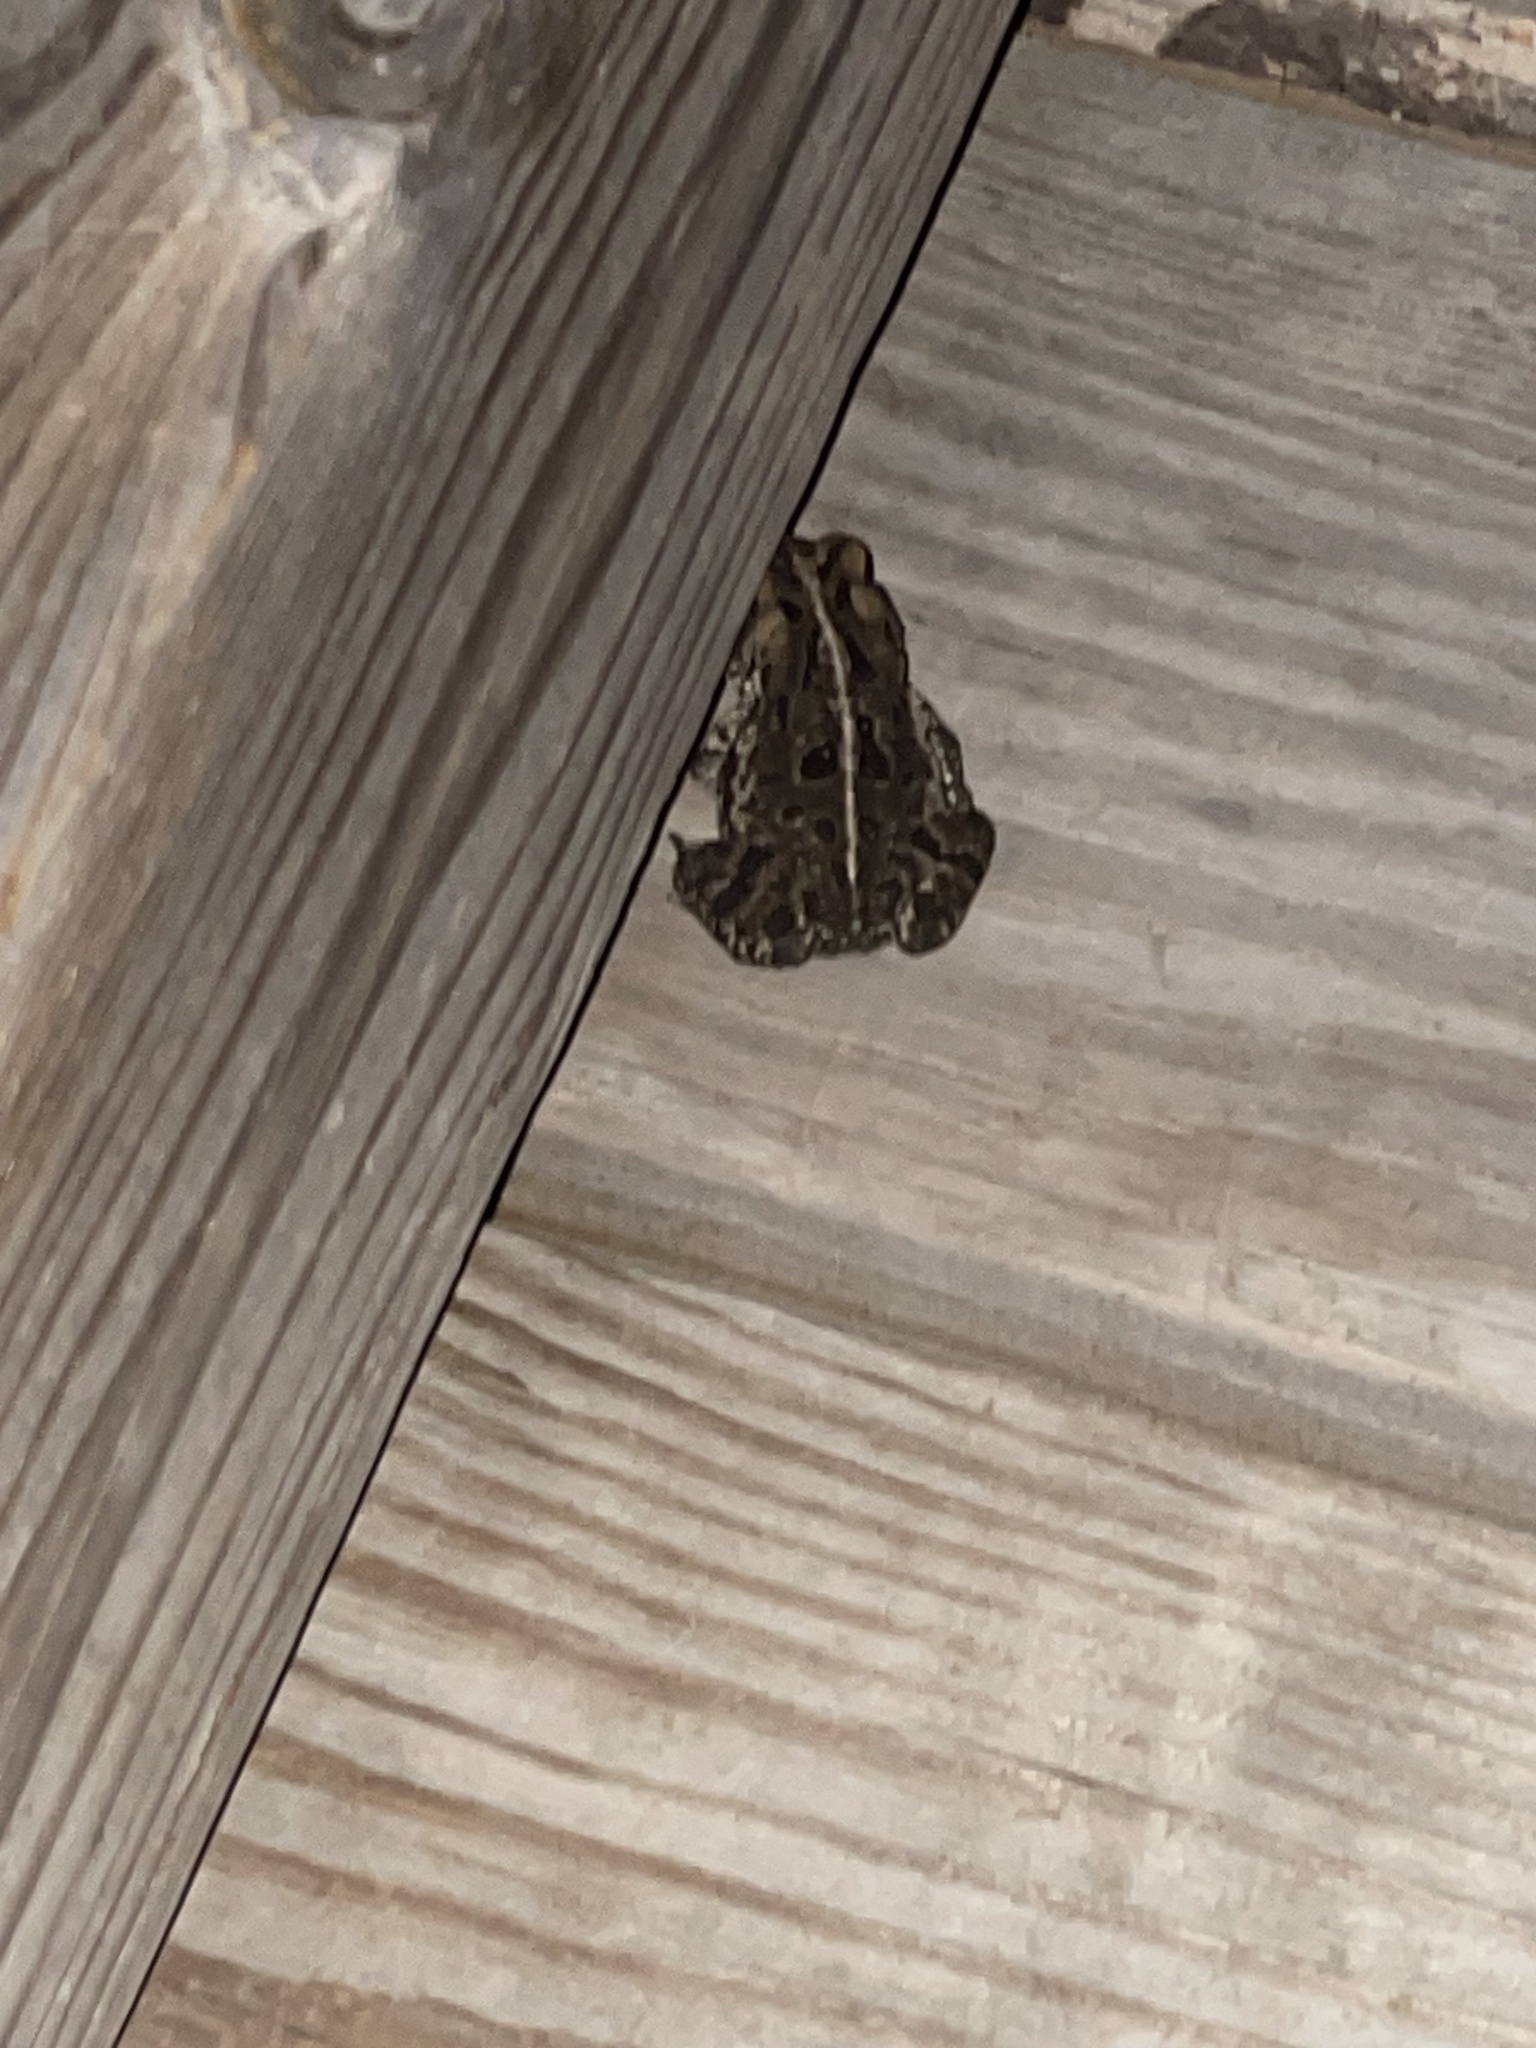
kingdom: Animalia
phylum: Chordata
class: Amphibia
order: Anura
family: Bufonidae
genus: Anaxyrus
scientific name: Anaxyrus fowleri
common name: Fowler's toad
